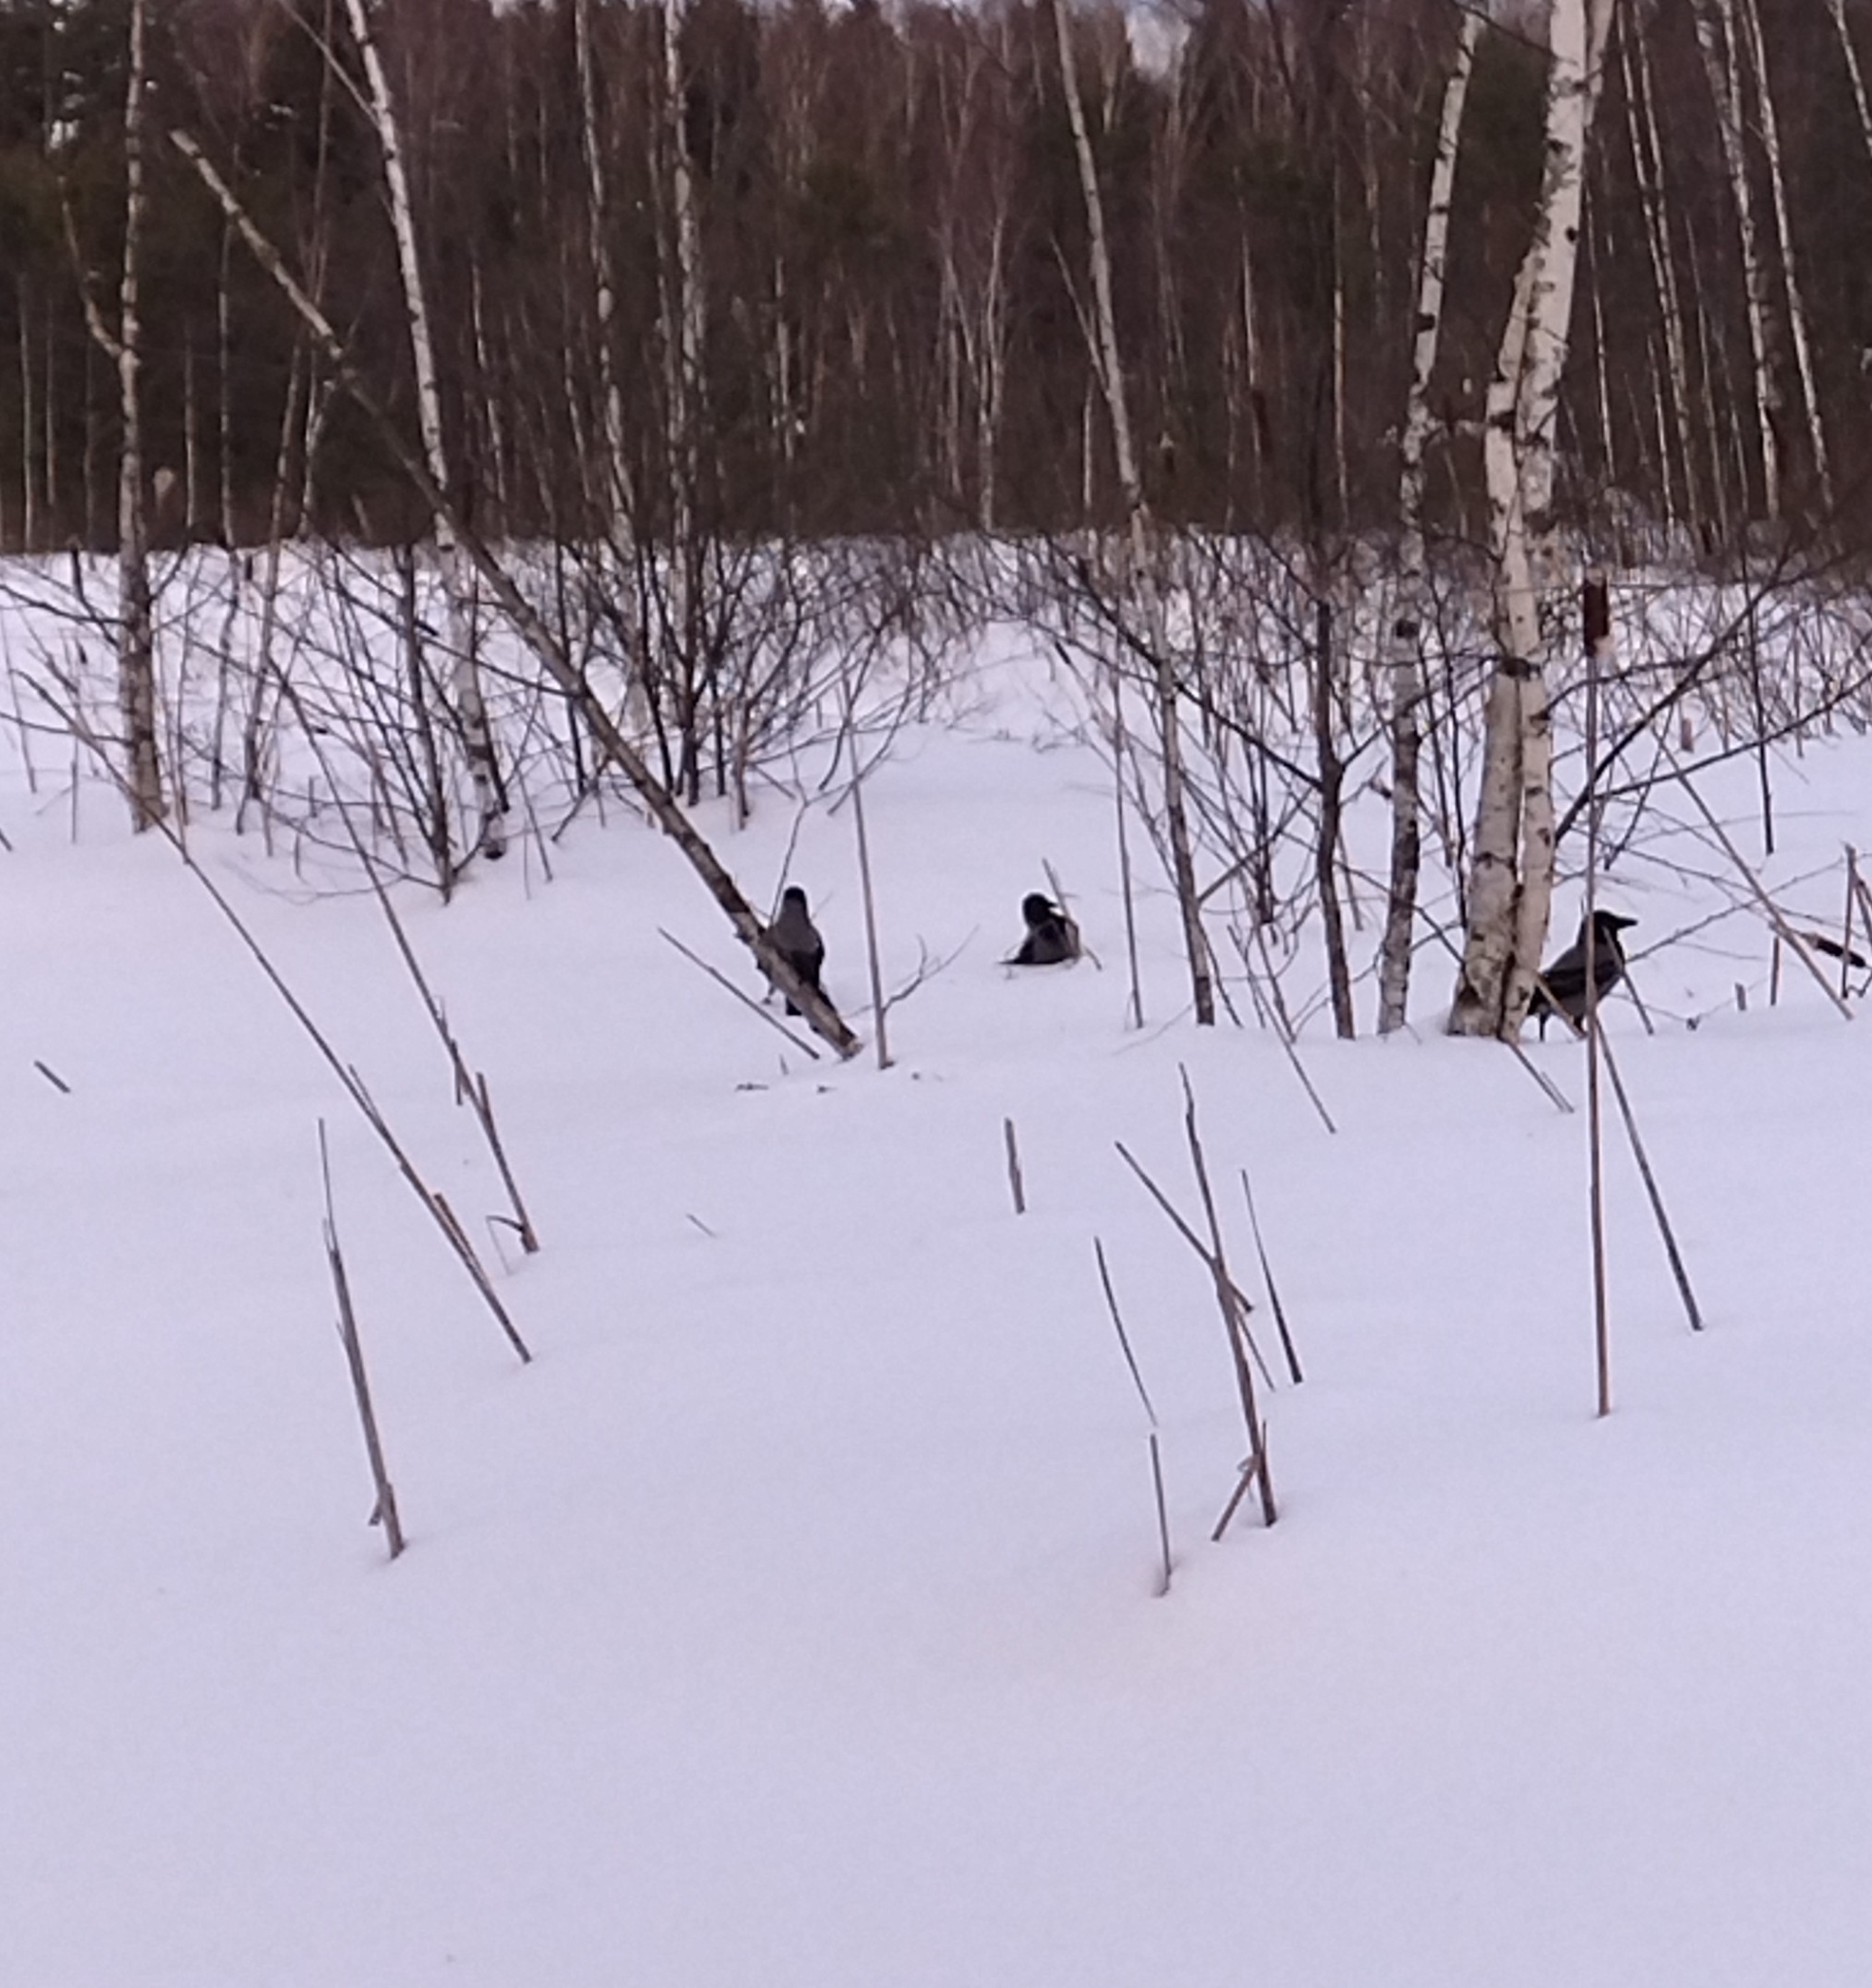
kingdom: Animalia
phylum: Chordata
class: Aves
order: Passeriformes
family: Corvidae
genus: Corvus
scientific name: Corvus cornix
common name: Hooded crow
